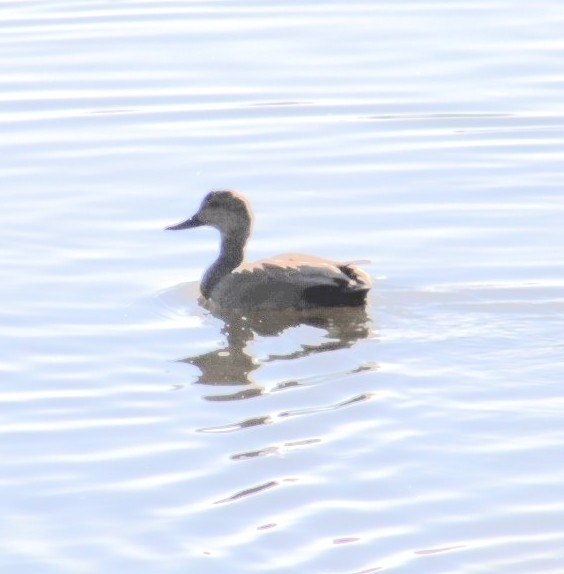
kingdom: Animalia
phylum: Chordata
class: Aves
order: Anseriformes
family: Anatidae
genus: Mareca
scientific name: Mareca strepera
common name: Gadwall
